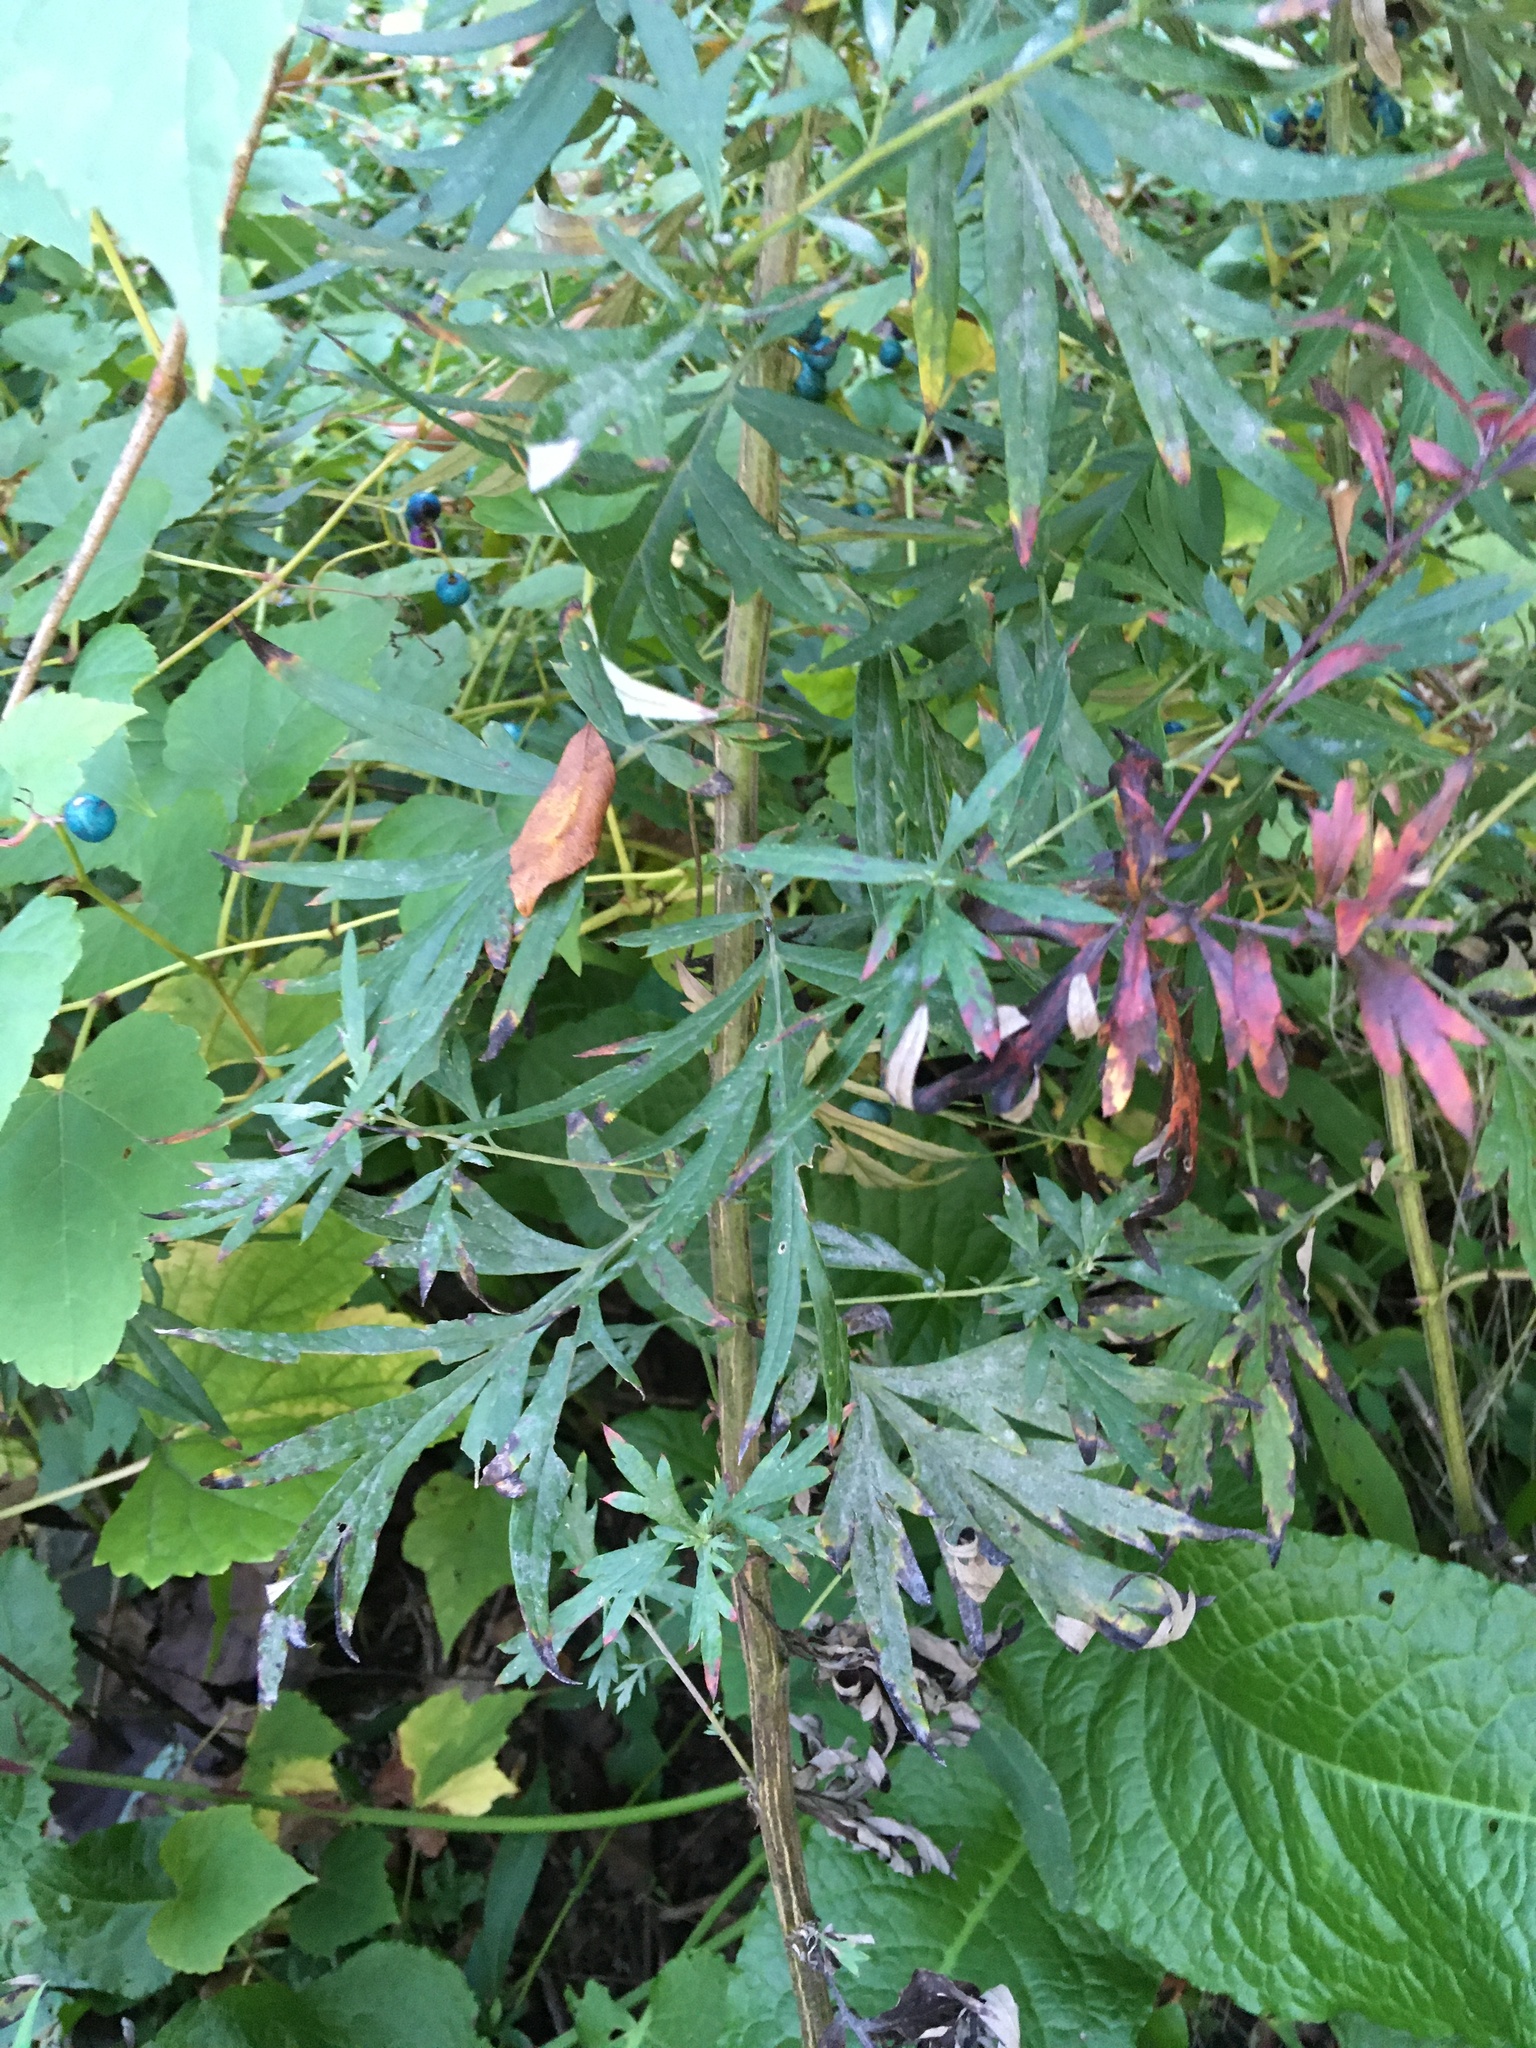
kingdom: Plantae
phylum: Tracheophyta
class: Magnoliopsida
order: Asterales
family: Asteraceae
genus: Artemisia
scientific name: Artemisia vulgaris
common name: Mugwort
